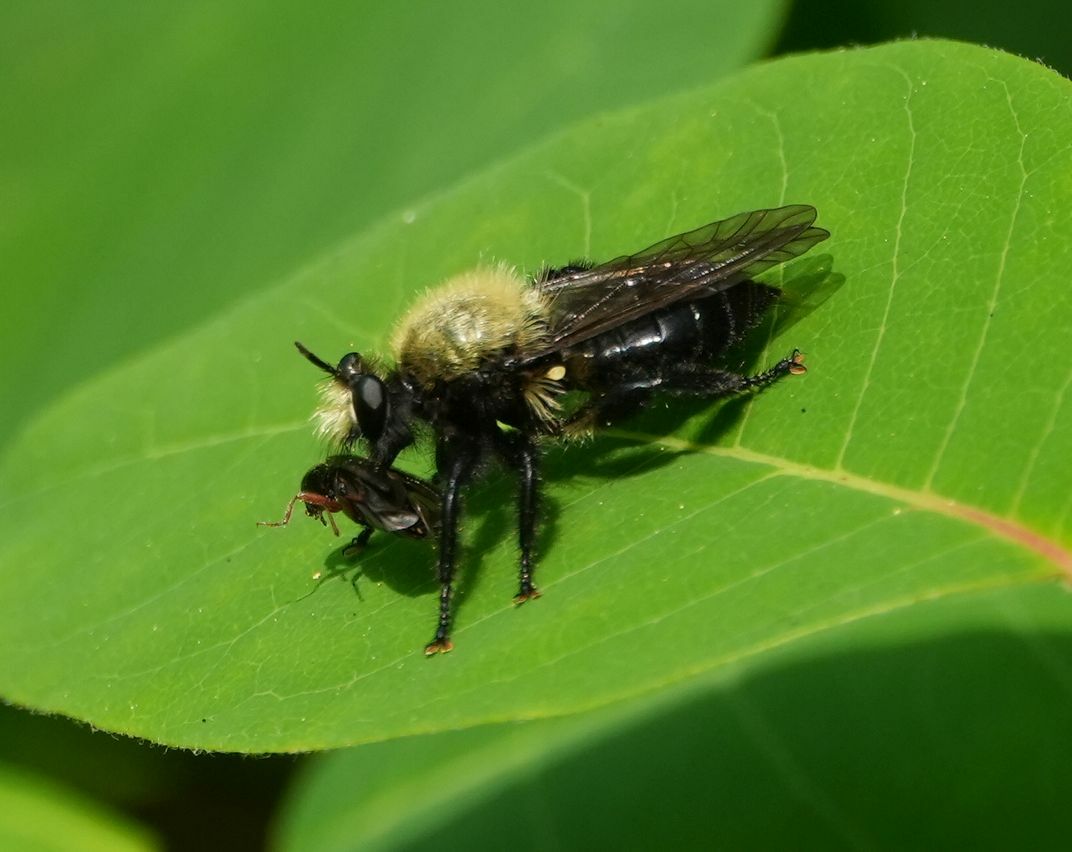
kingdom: Animalia
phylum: Arthropoda
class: Insecta
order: Diptera
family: Asilidae
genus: Laphria
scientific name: Laphria flavicollis
